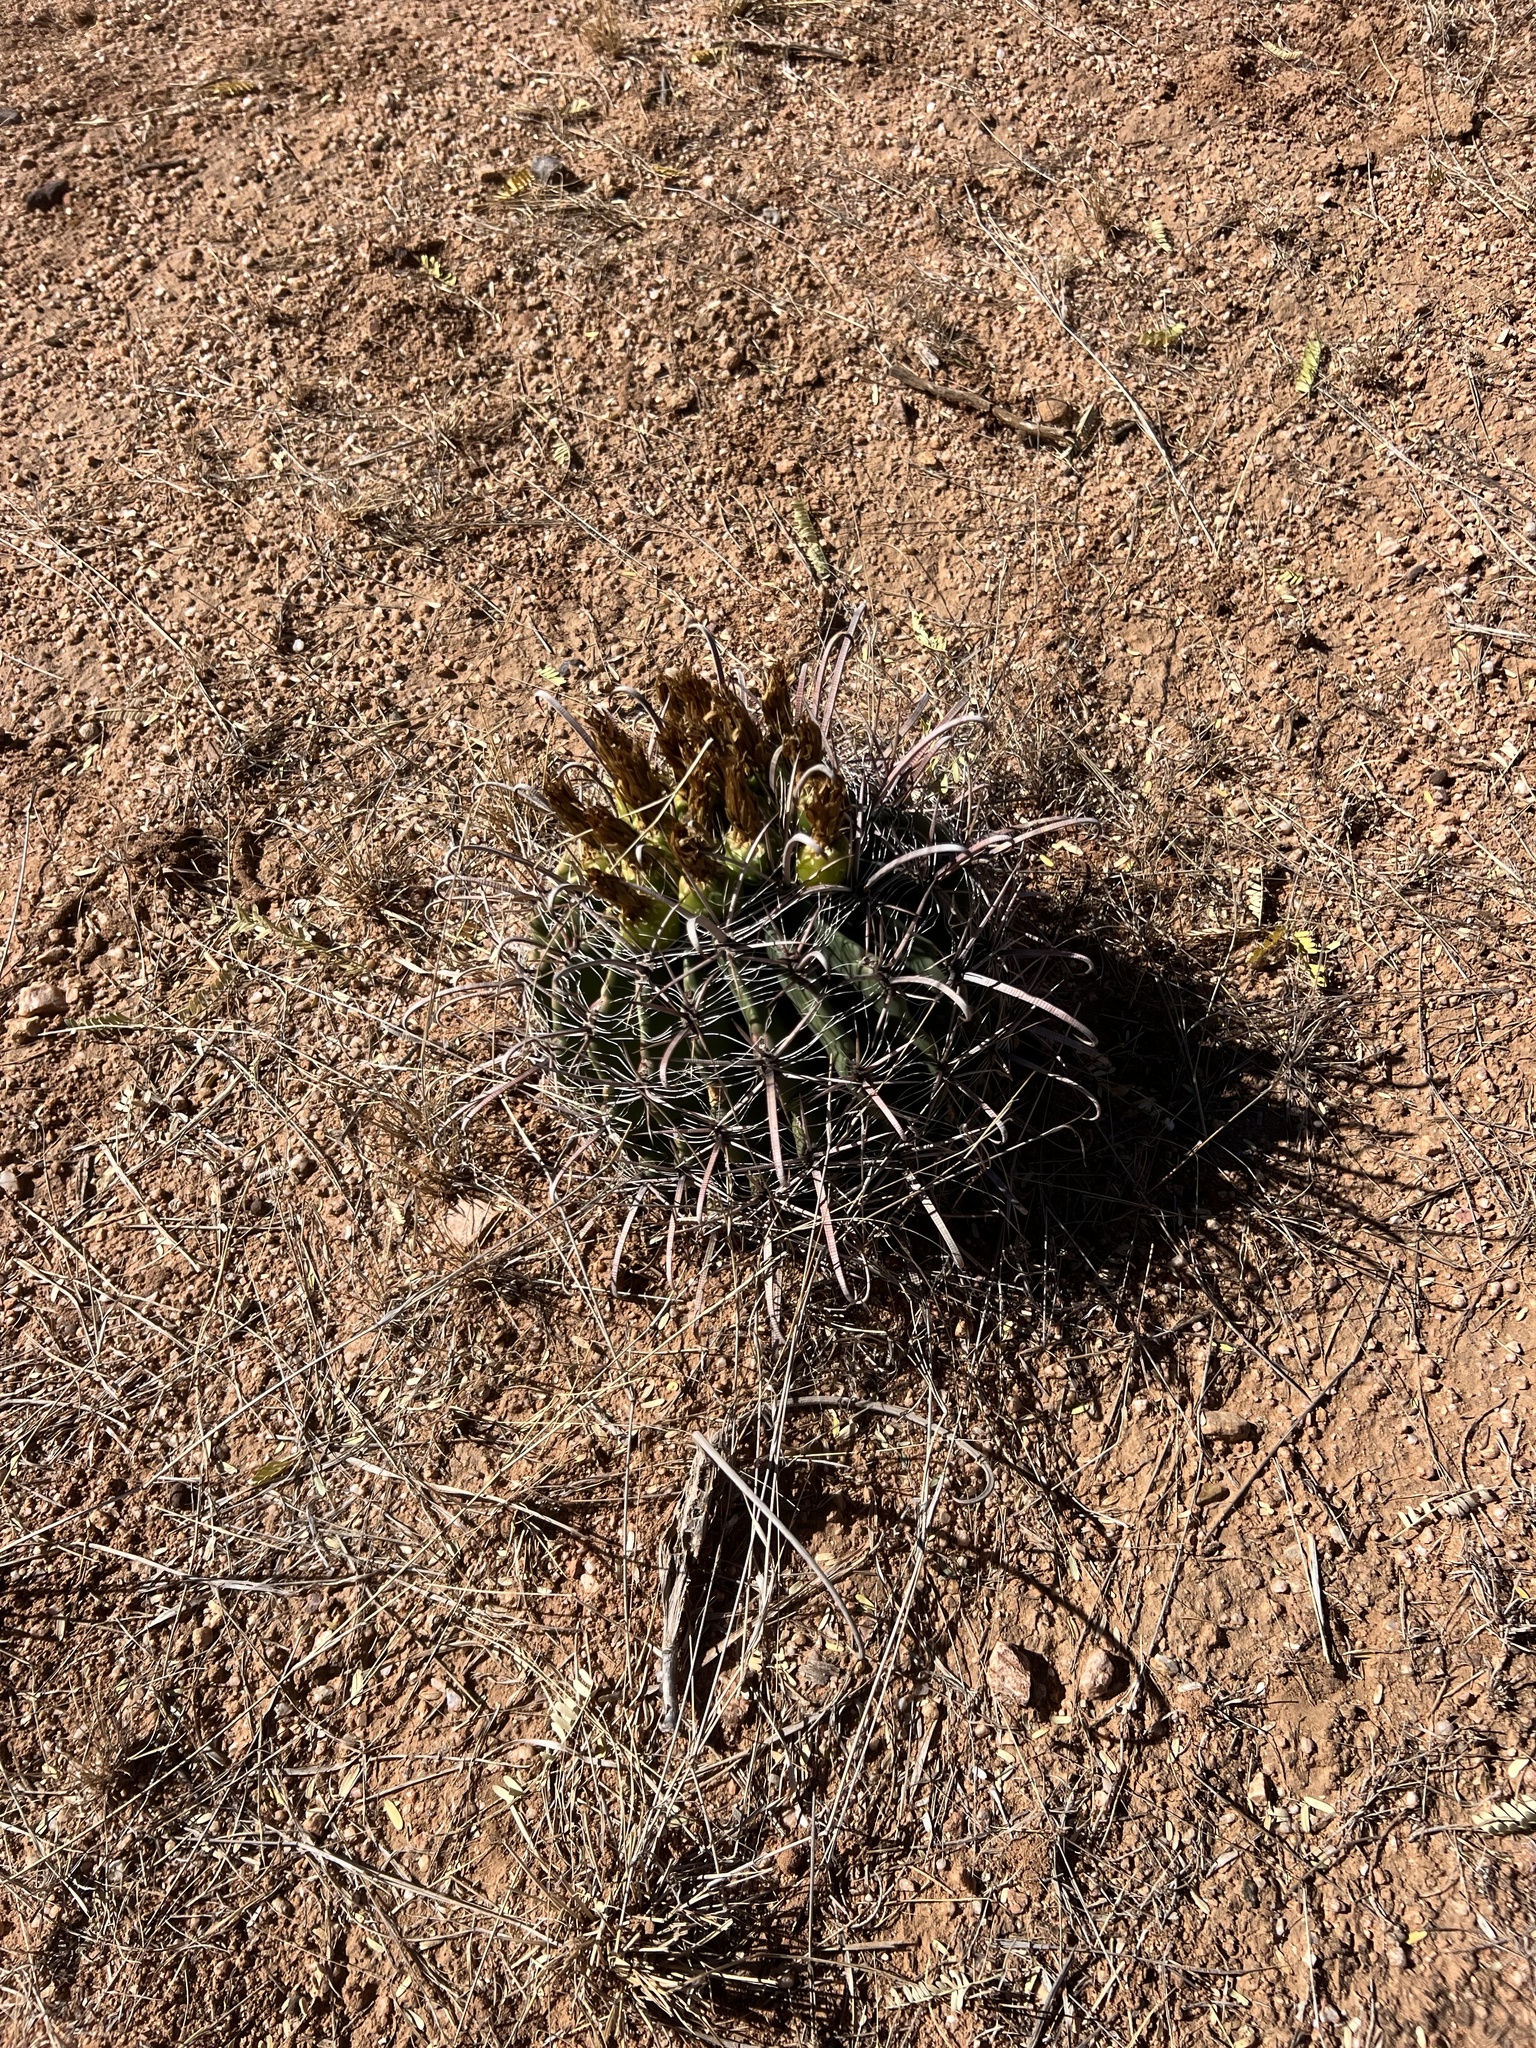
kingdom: Plantae
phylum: Tracheophyta
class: Magnoliopsida
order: Caryophyllales
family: Cactaceae
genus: Ferocactus
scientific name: Ferocactus wislizeni
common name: Candy barrel cactus
